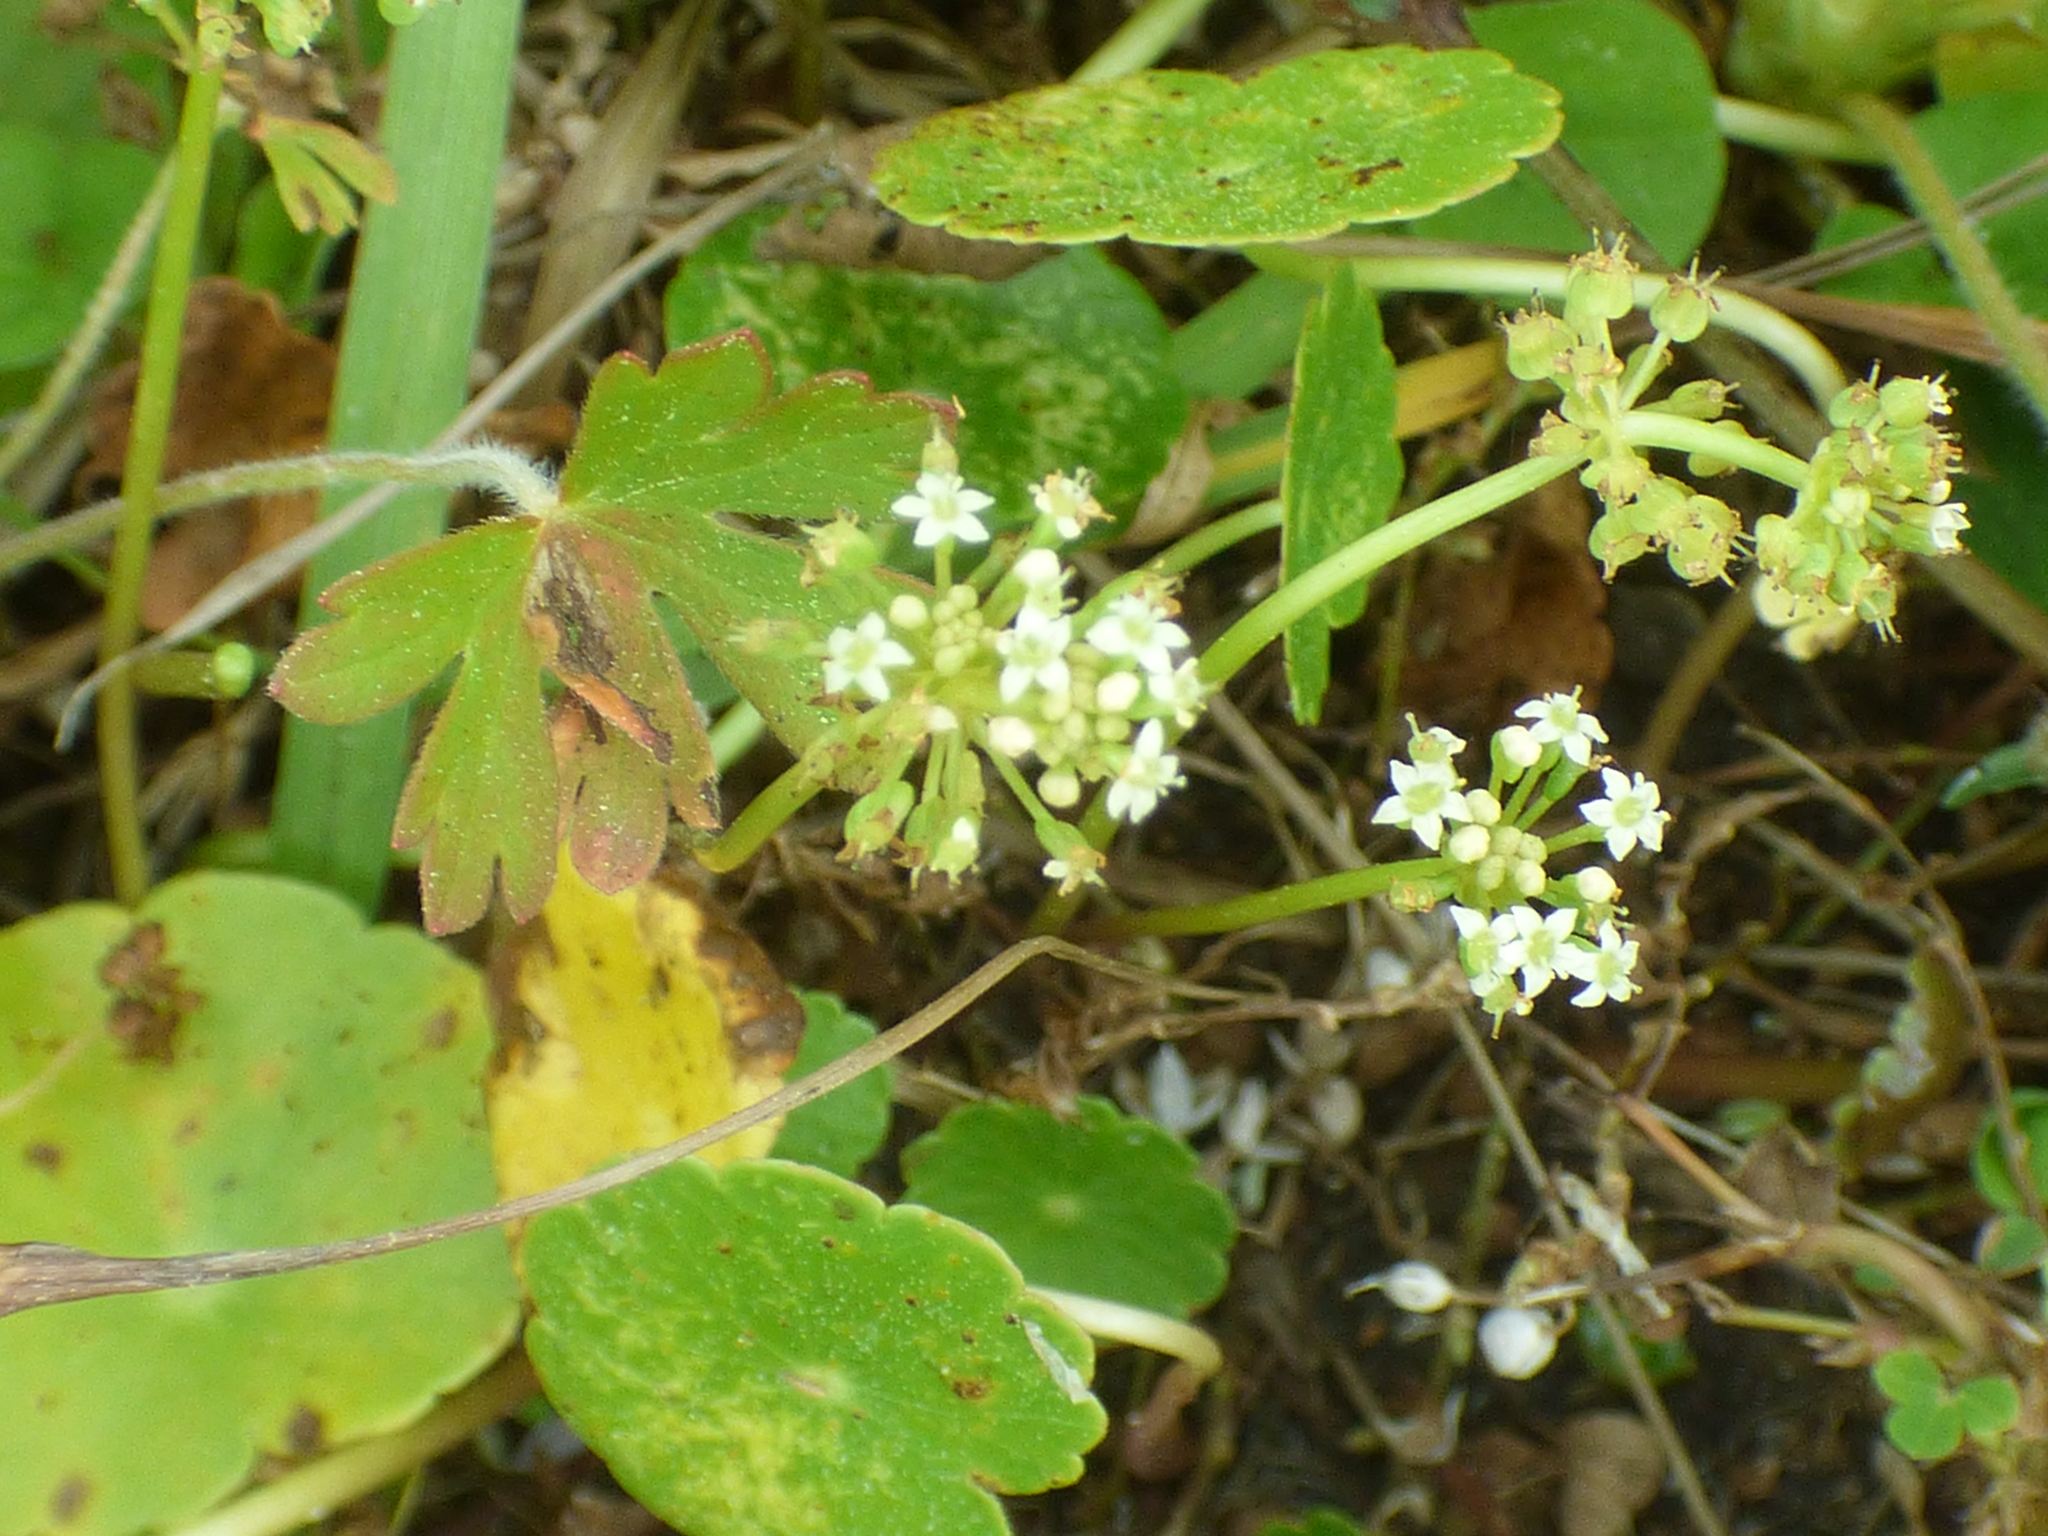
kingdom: Plantae
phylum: Tracheophyta
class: Magnoliopsida
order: Apiales
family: Araliaceae
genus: Hydrocotyle
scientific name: Hydrocotyle verticillata
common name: Whorled marshpennywort
